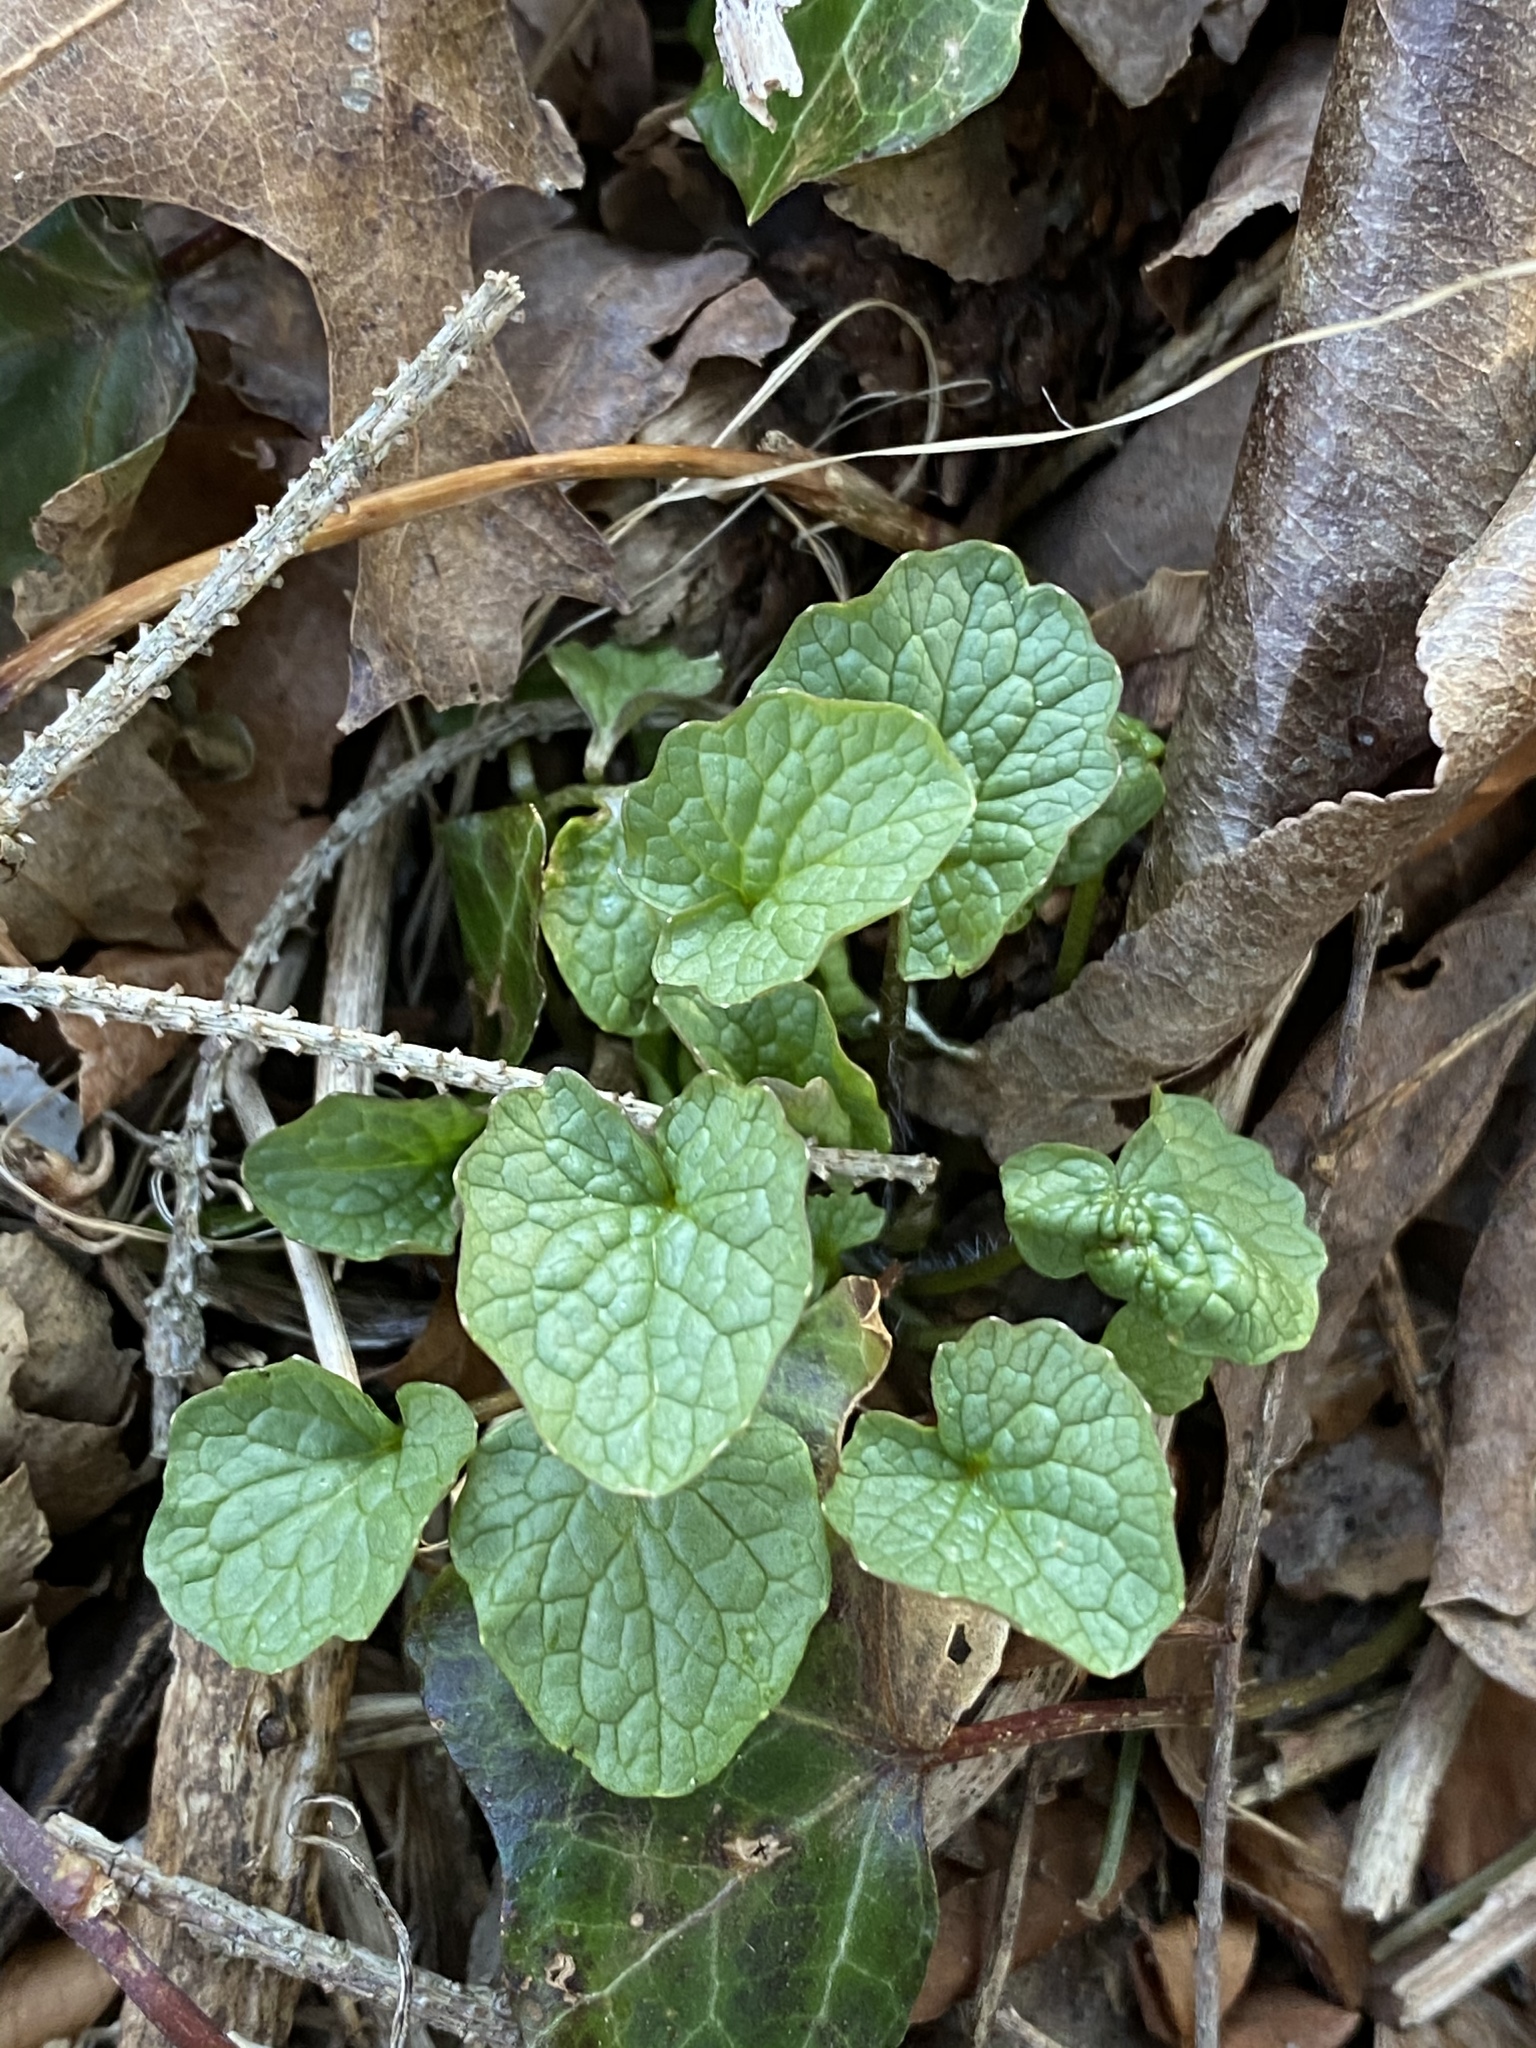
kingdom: Plantae
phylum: Tracheophyta
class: Magnoliopsida
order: Brassicales
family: Brassicaceae
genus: Alliaria
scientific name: Alliaria petiolata
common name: Garlic mustard
